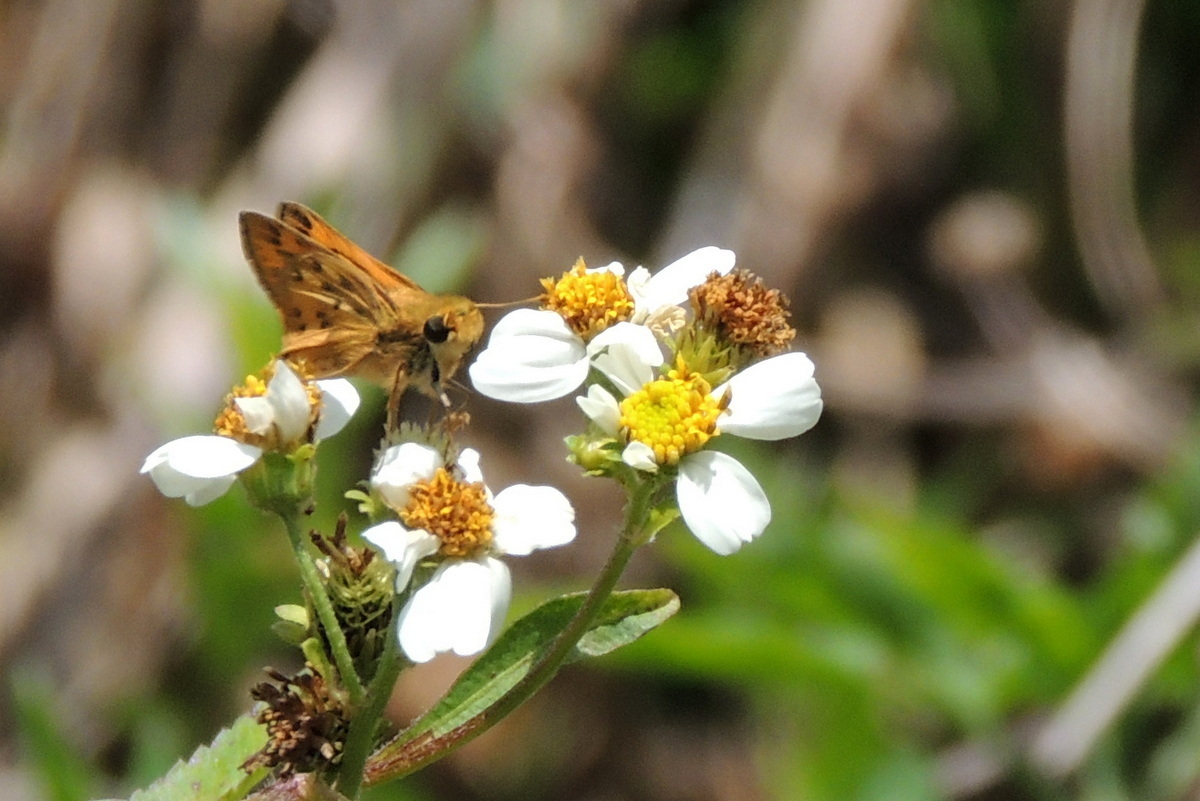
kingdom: Animalia
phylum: Arthropoda
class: Insecta
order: Lepidoptera
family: Hesperiidae
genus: Hylephila
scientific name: Hylephila phyleus
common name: Fiery skipper
